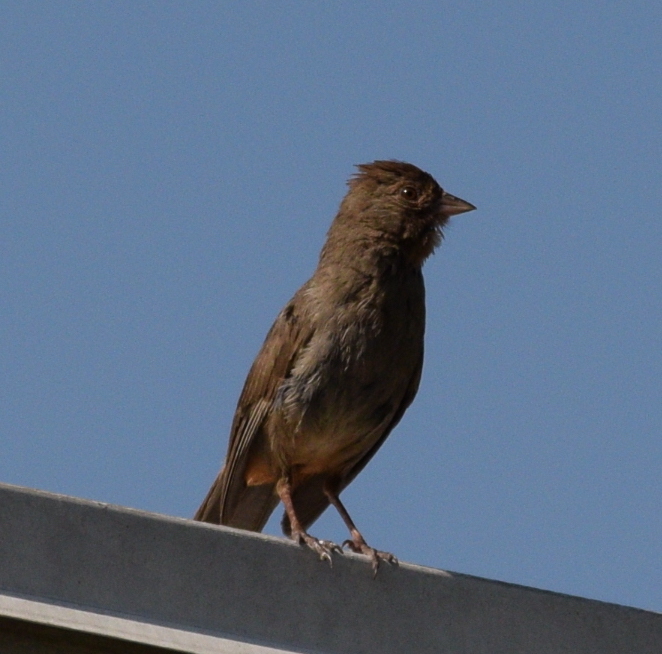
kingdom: Animalia
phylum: Chordata
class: Aves
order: Passeriformes
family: Passerellidae
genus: Melozone
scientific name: Melozone crissalis
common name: California towhee
